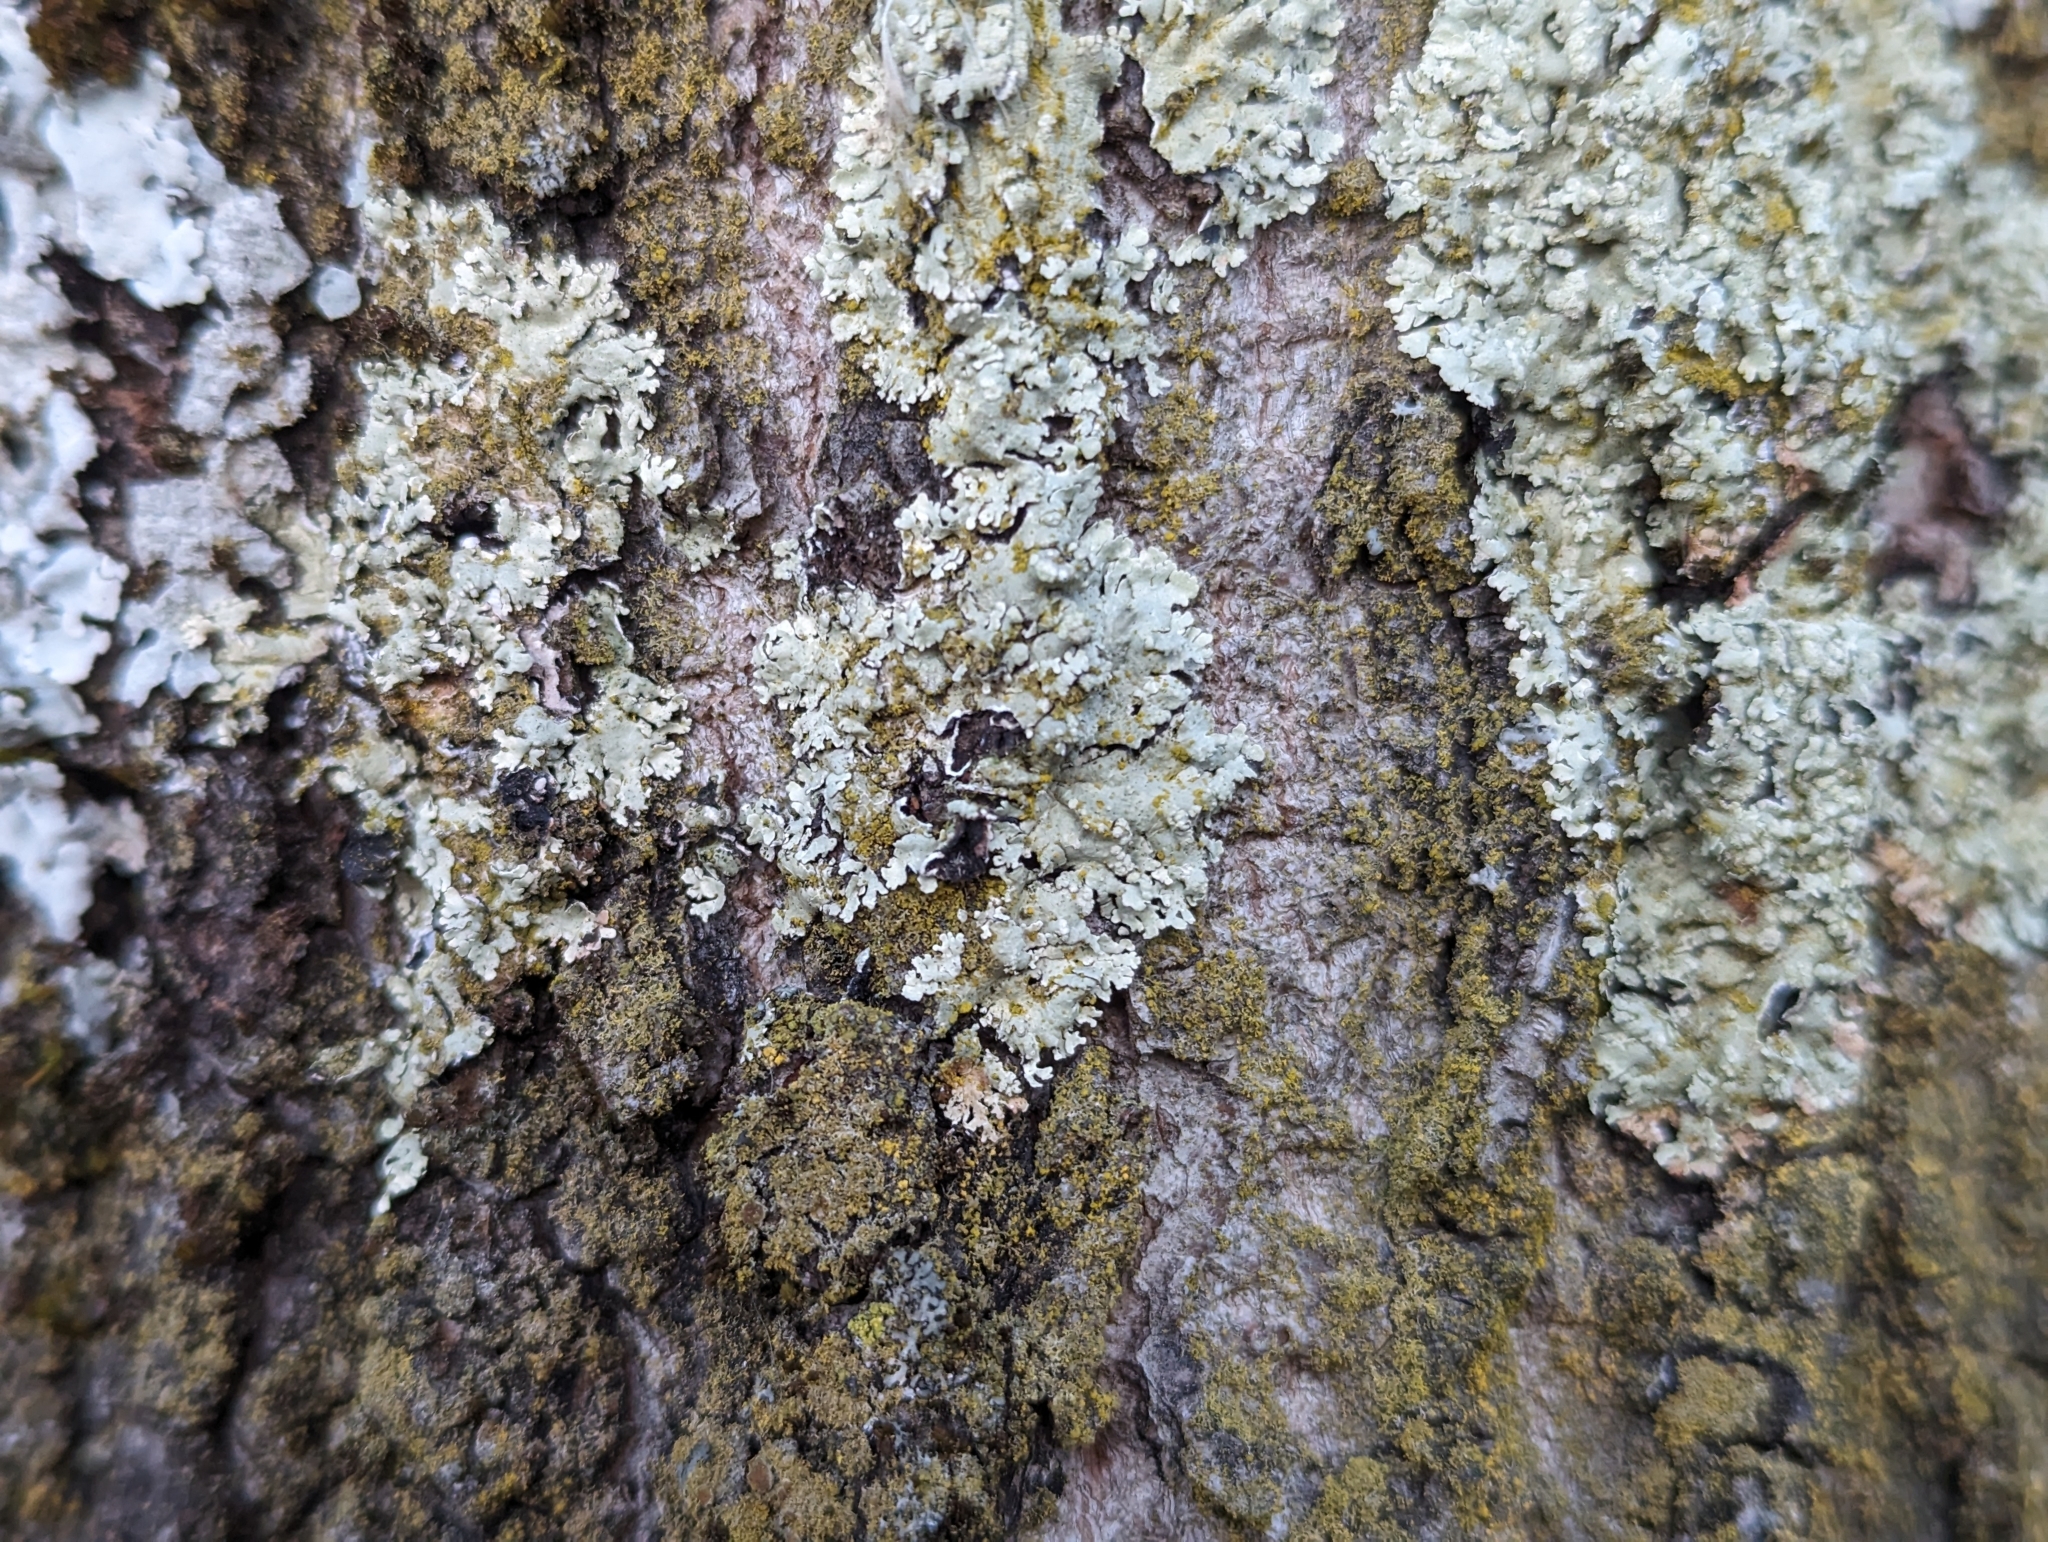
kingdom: Fungi
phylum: Ascomycota
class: Lecanoromycetes
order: Lecanorales
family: Parmeliaceae
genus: Flavoparmelia
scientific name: Flavoparmelia soredians
